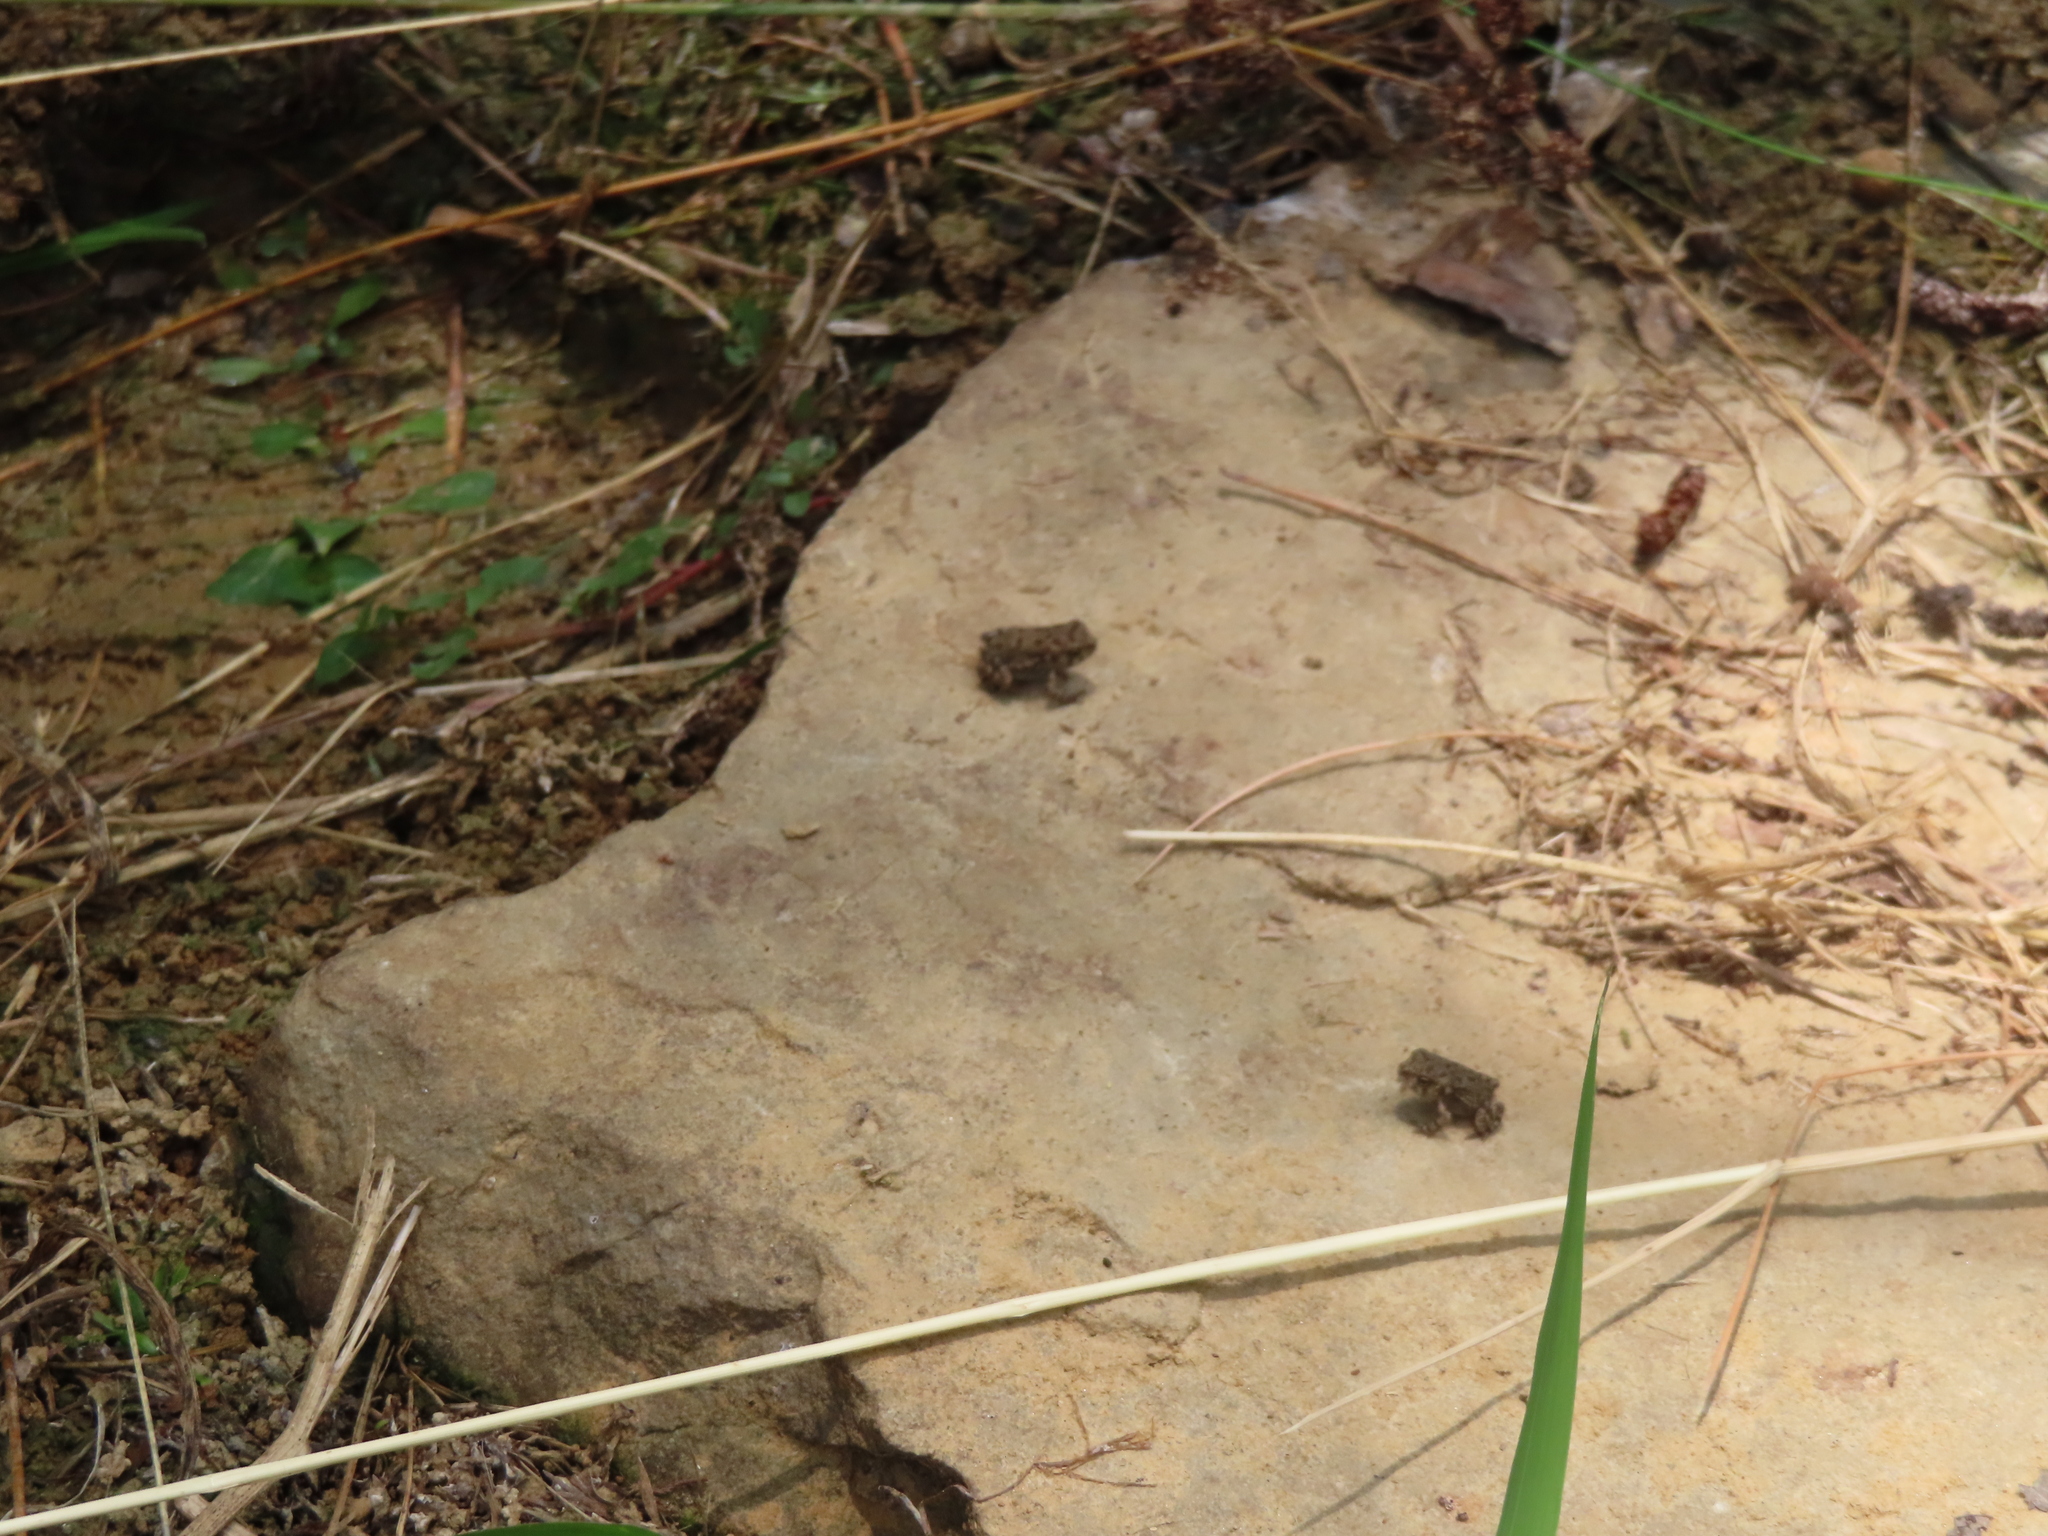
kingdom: Animalia
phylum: Chordata
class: Amphibia
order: Anura
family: Bufonidae
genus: Anaxyrus
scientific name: Anaxyrus fowleri
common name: Fowler's toad
